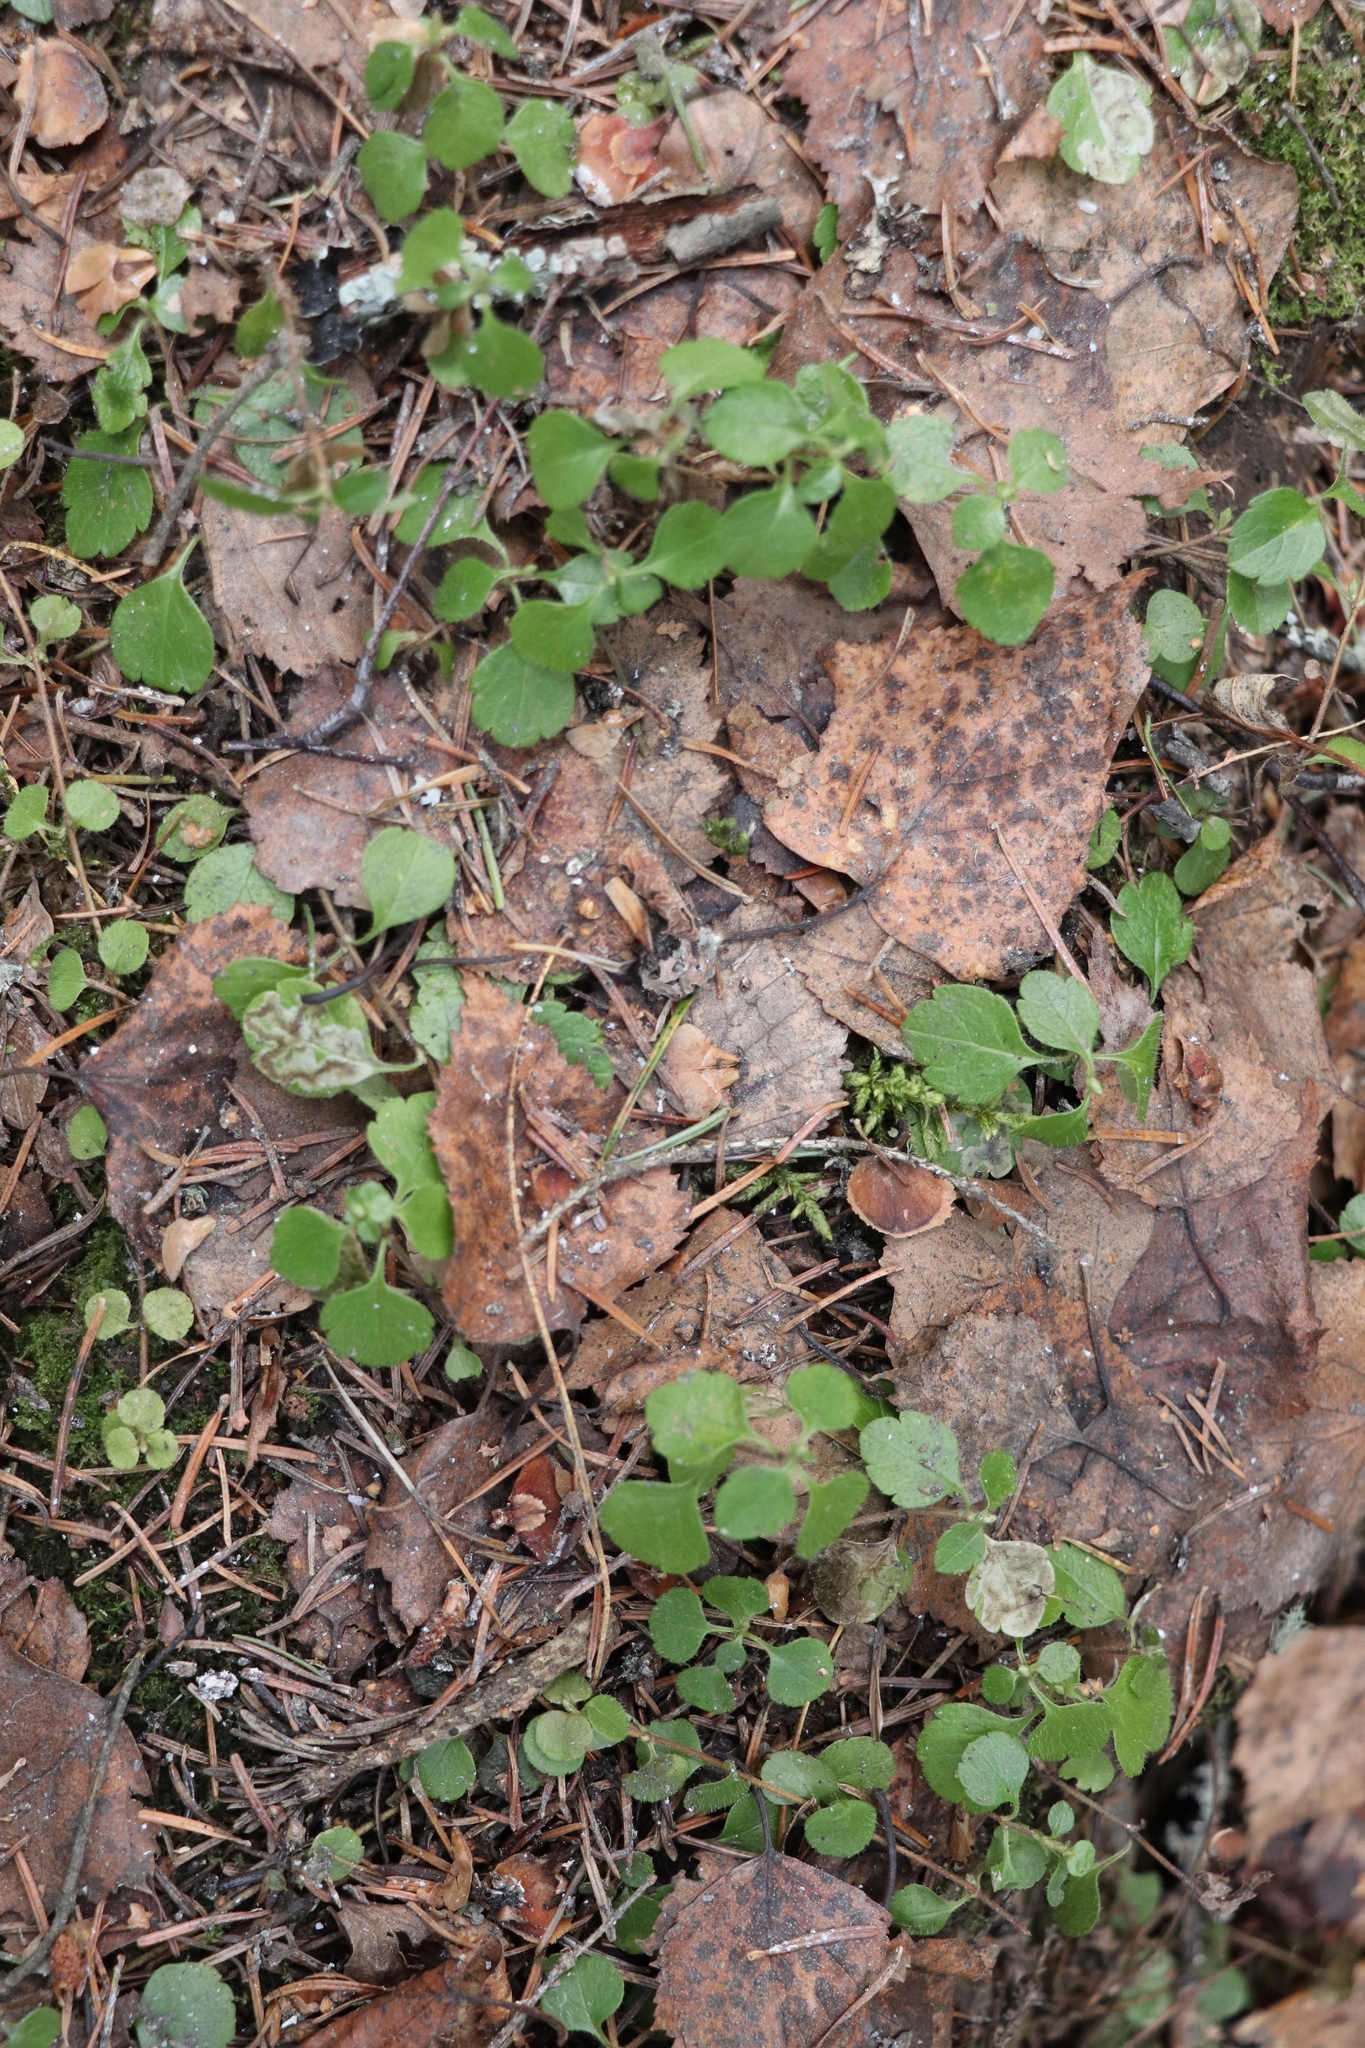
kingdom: Plantae
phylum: Tracheophyta
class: Magnoliopsida
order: Dipsacales
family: Caprifoliaceae
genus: Linnaea
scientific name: Linnaea borealis
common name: Twinflower
